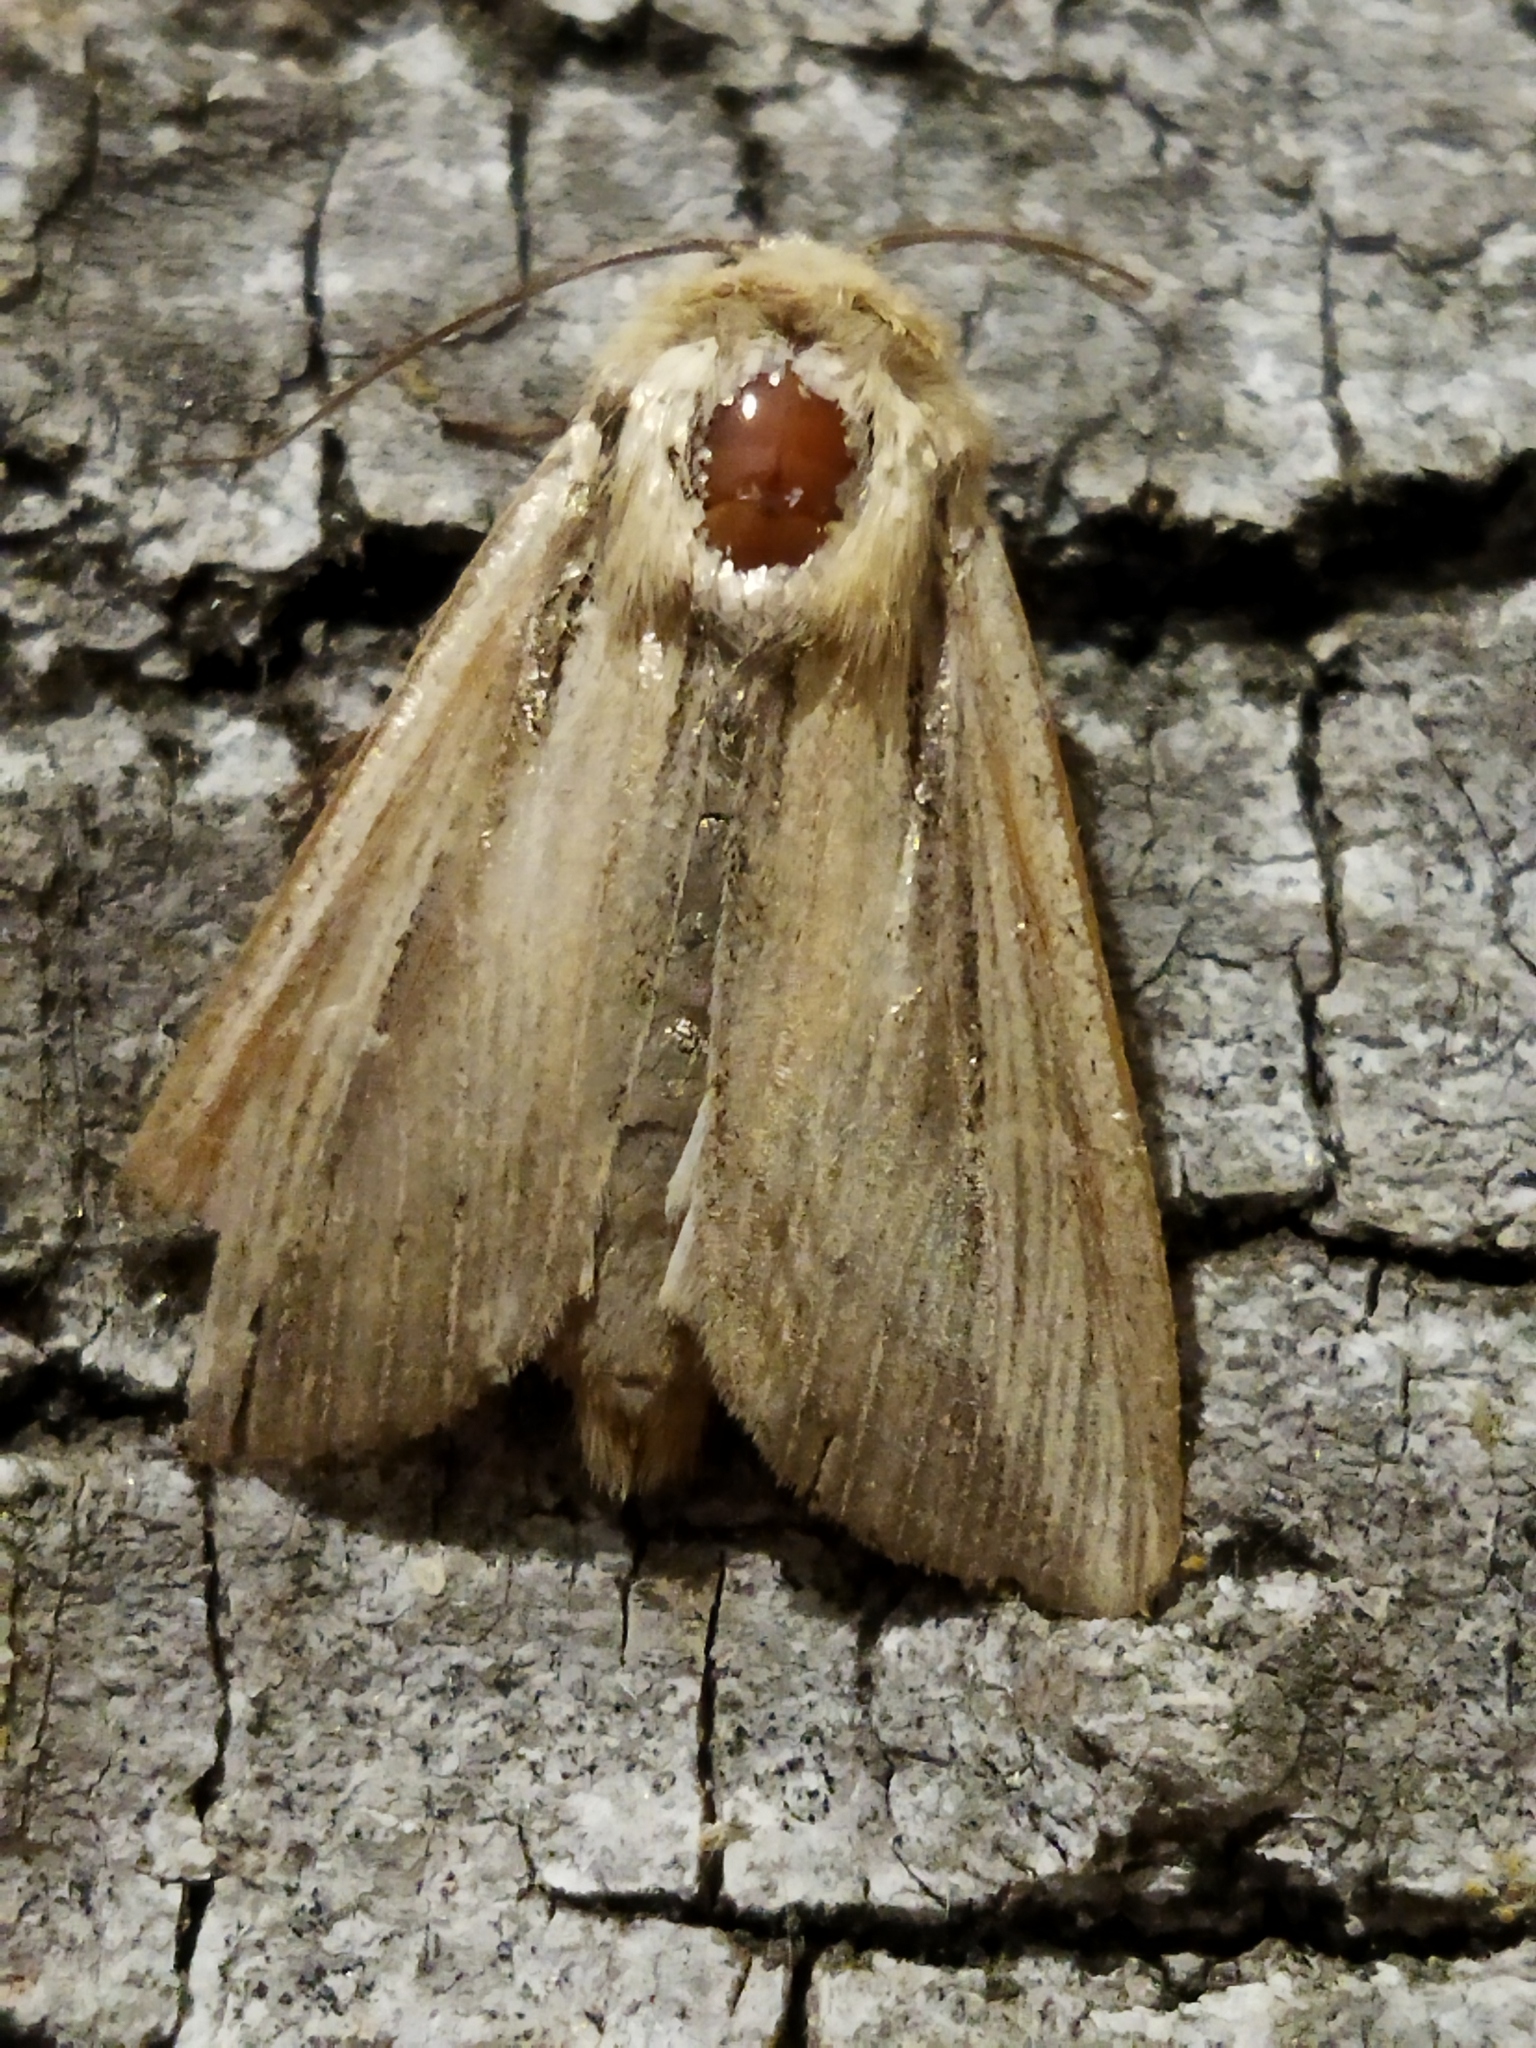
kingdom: Animalia
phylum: Arthropoda
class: Insecta
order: Lepidoptera
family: Noctuidae
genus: Leucania
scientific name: Leucania loreyi
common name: The cosmopolitan
